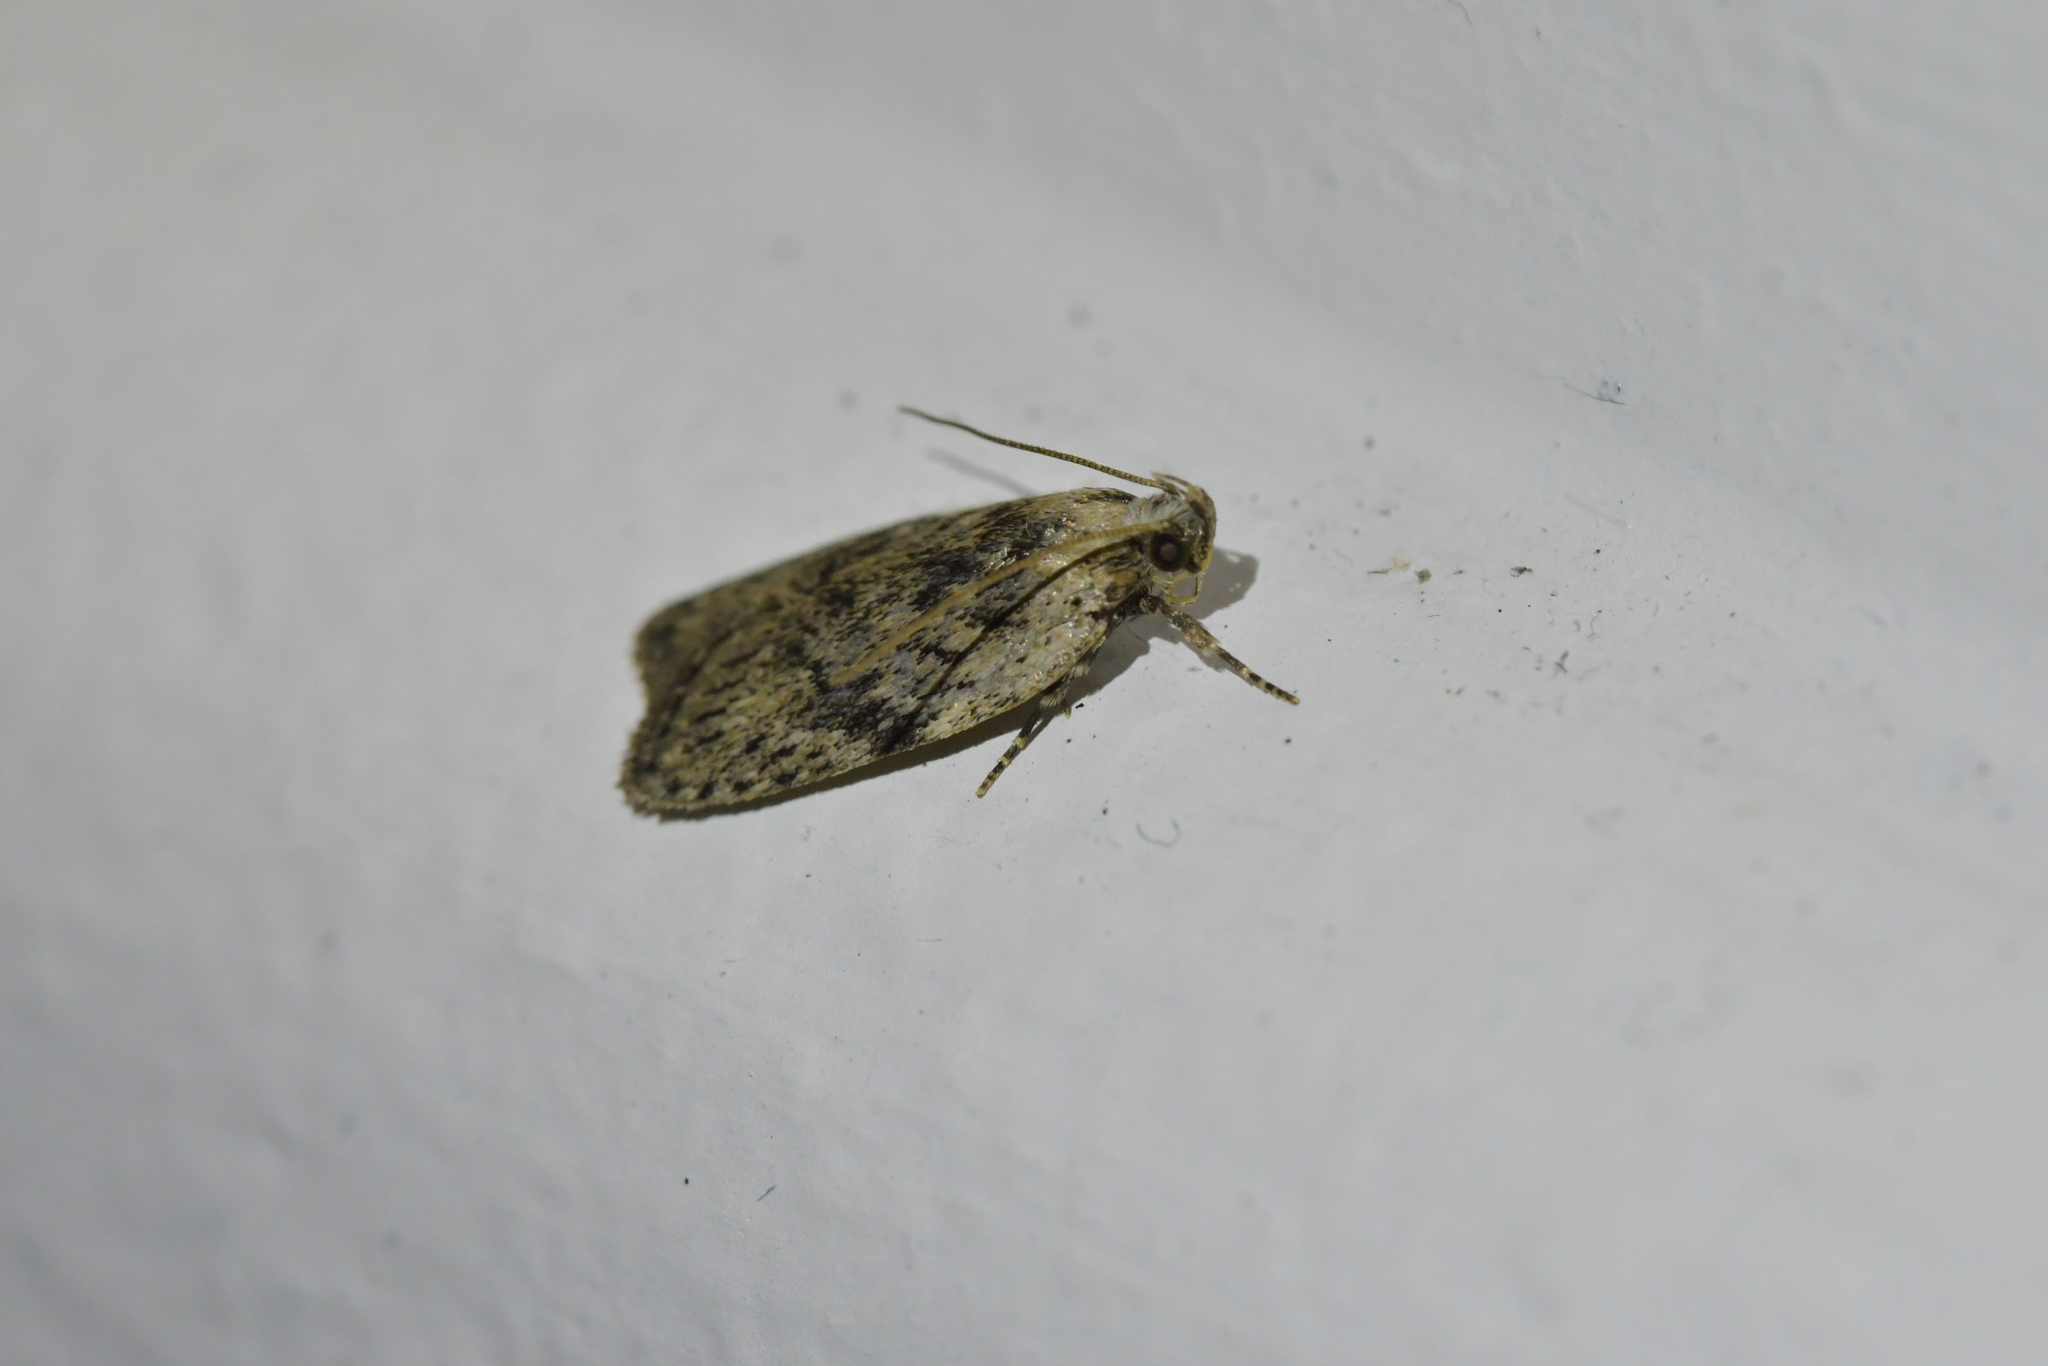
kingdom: Animalia
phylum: Arthropoda
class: Insecta
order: Lepidoptera
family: Depressariidae
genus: Phaeosaces
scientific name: Phaeosaces compsotypa
